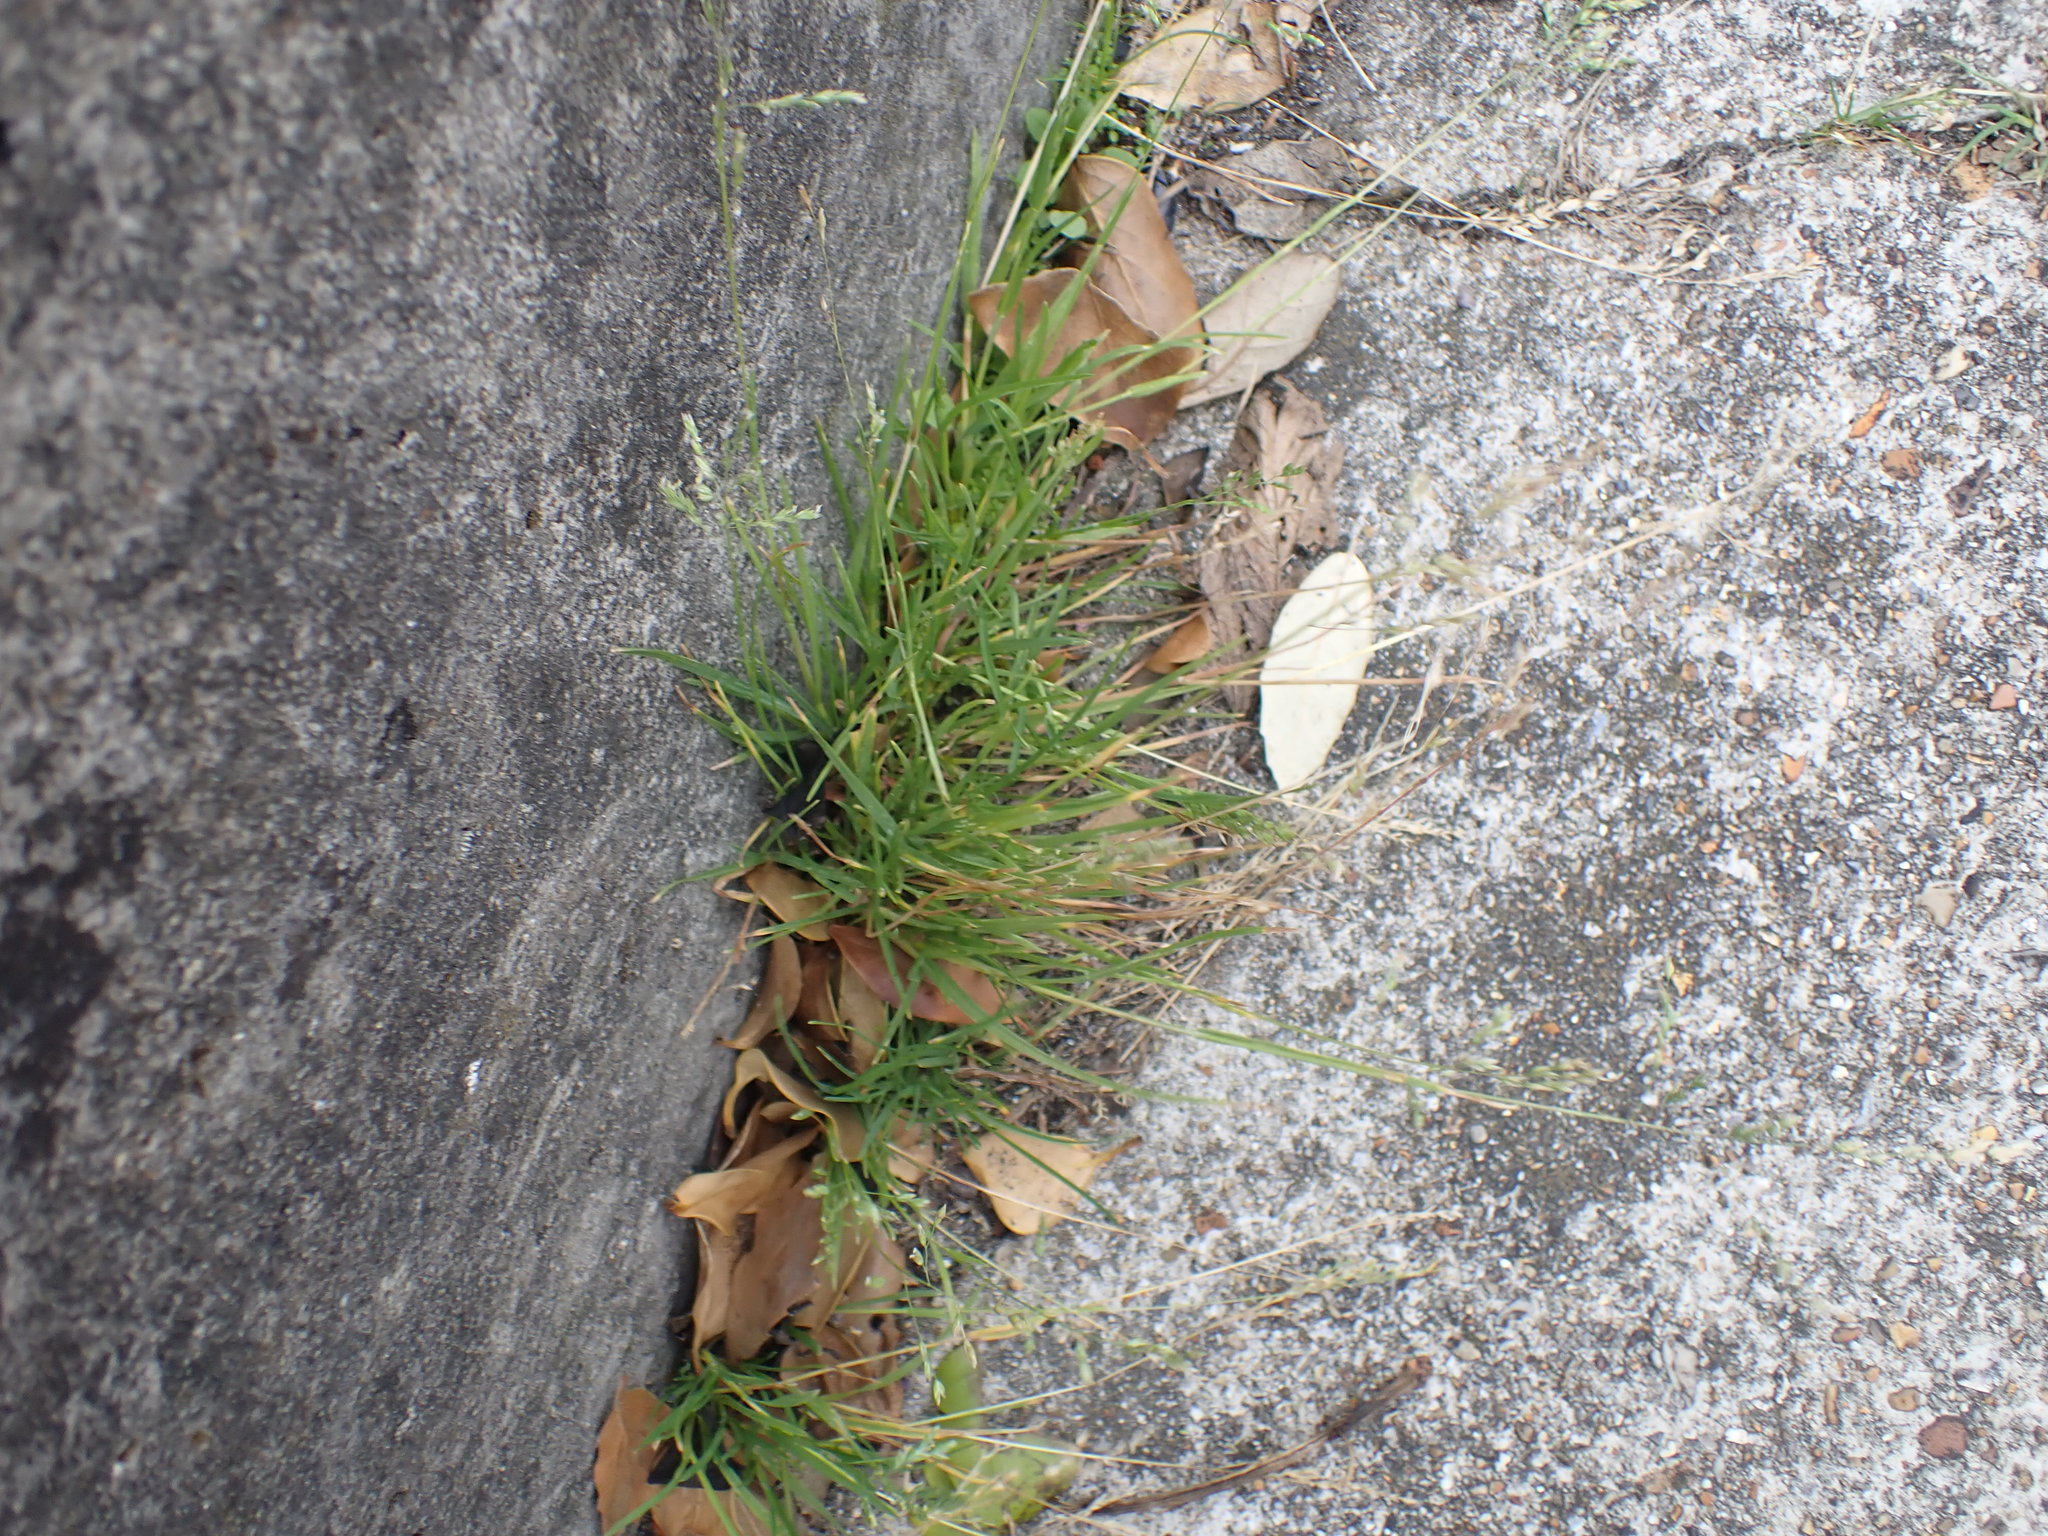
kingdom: Plantae
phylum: Tracheophyta
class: Liliopsida
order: Poales
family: Poaceae
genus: Poa
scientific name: Poa annua
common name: Annual bluegrass
